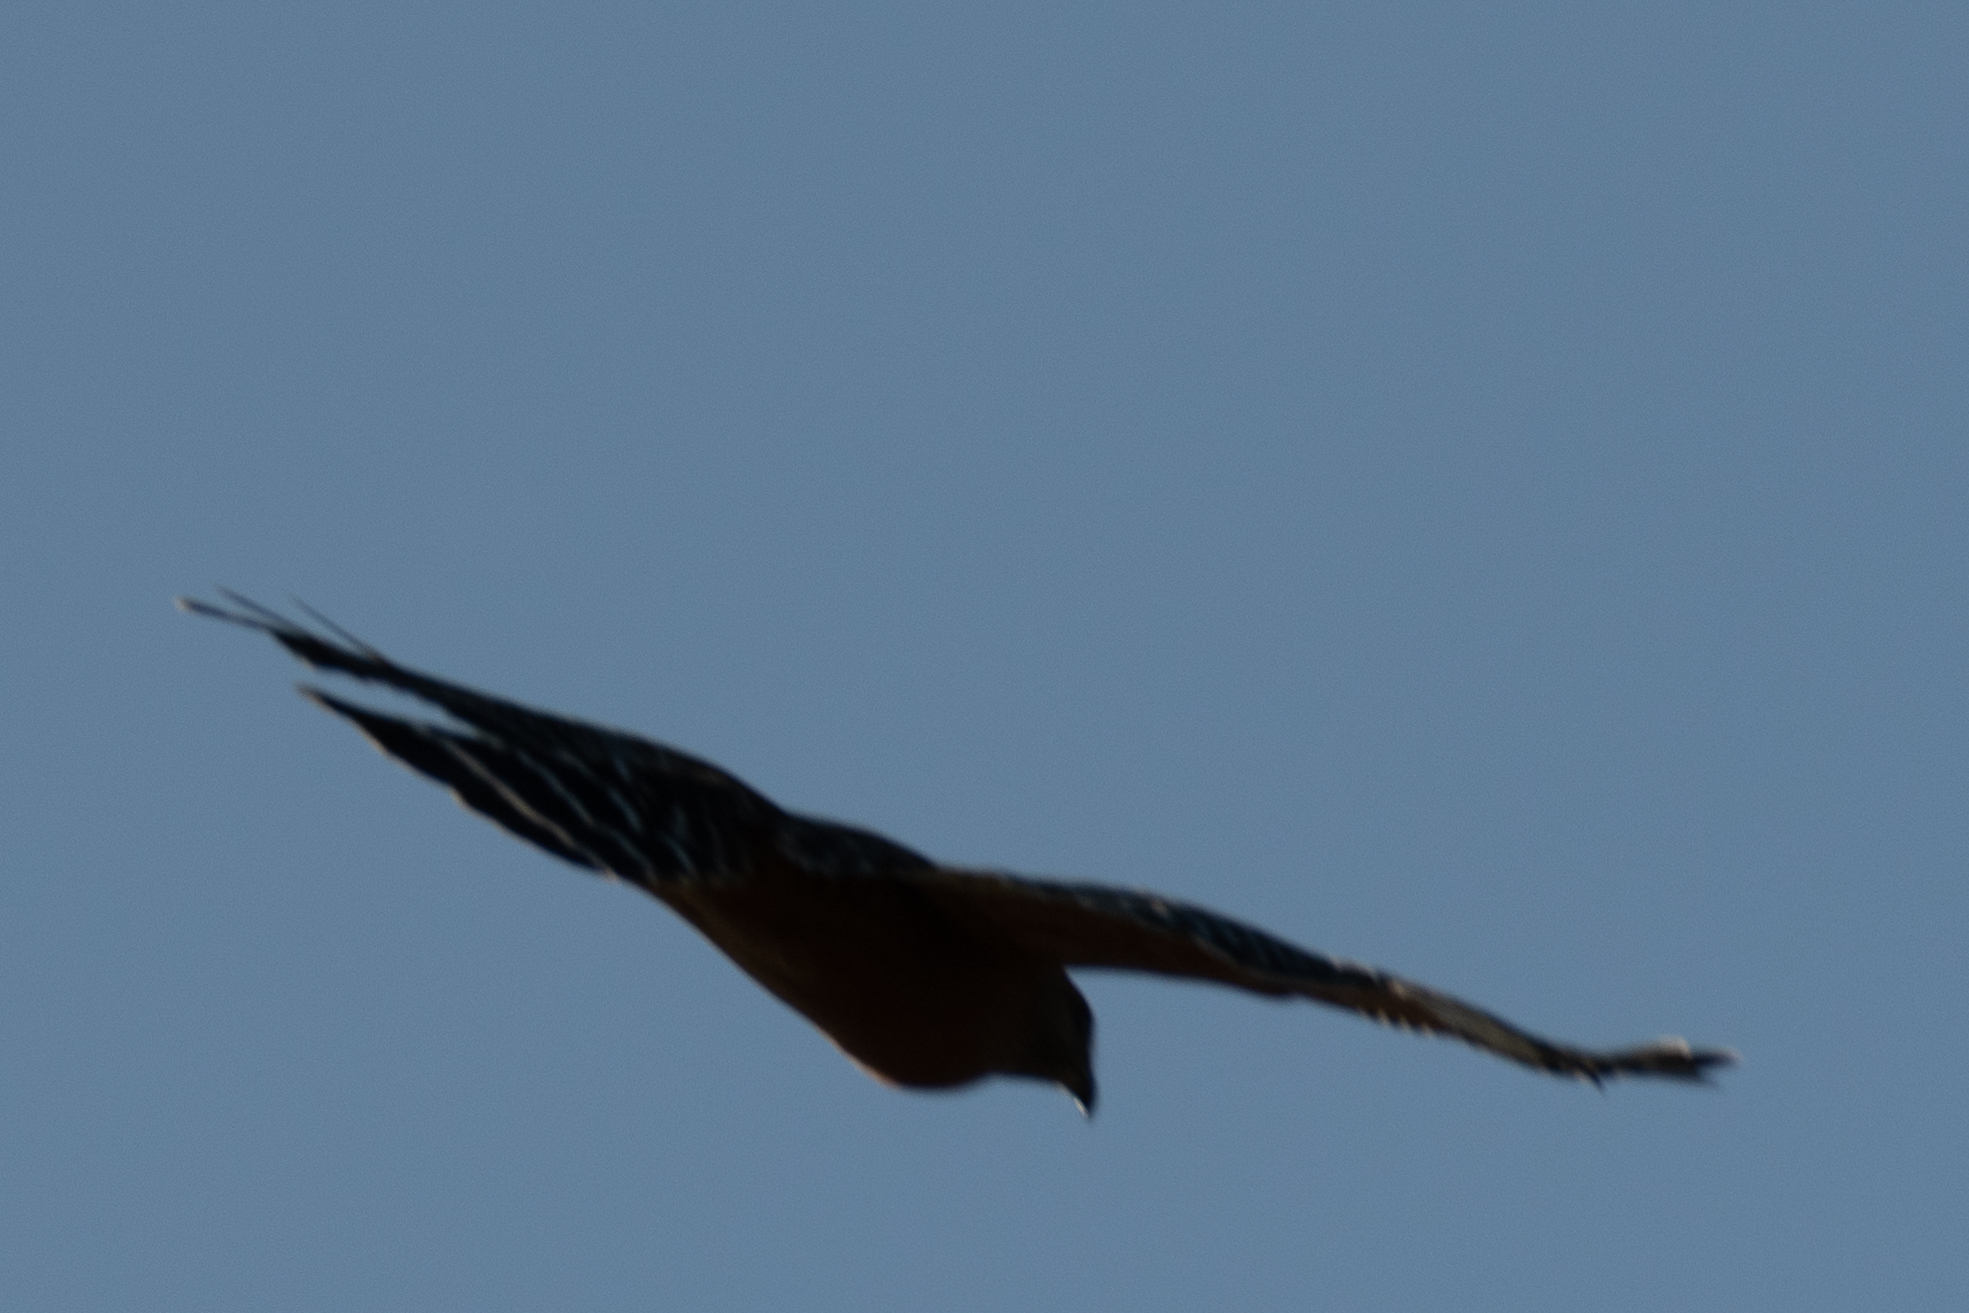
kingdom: Animalia
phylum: Chordata
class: Aves
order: Accipitriformes
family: Accipitridae
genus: Buteo
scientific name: Buteo lineatus
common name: Red-shouldered hawk
